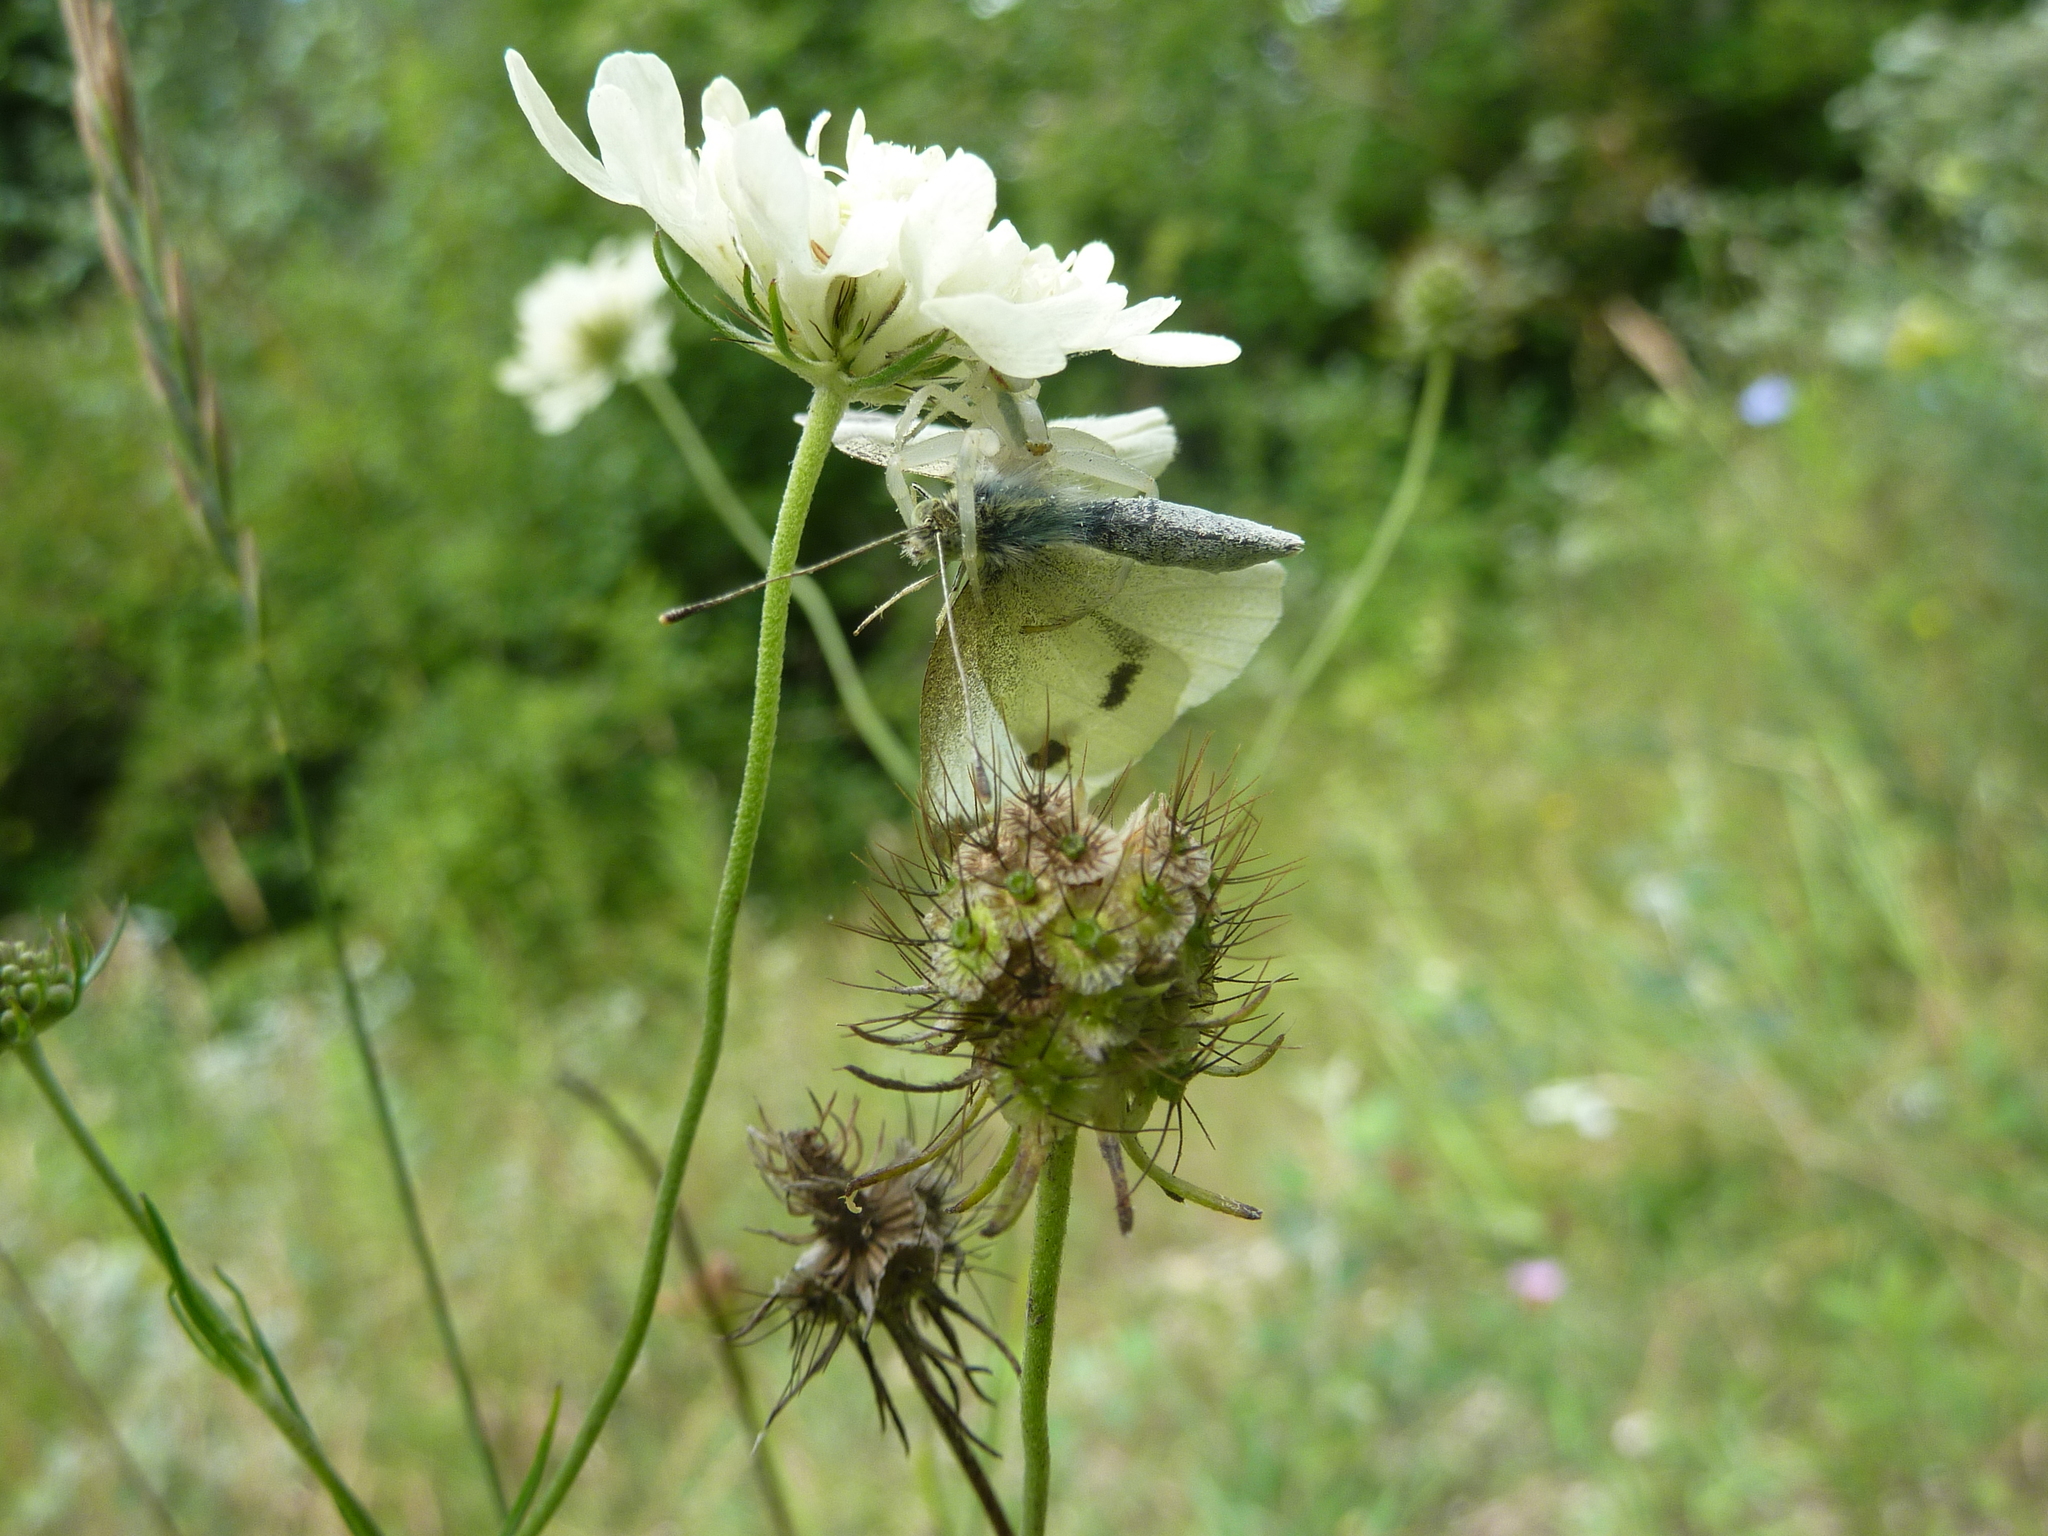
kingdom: Animalia
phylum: Arthropoda
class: Arachnida
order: Araneae
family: Thomisidae
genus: Misumena
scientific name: Misumena vatia
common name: Goldenrod crab spider
